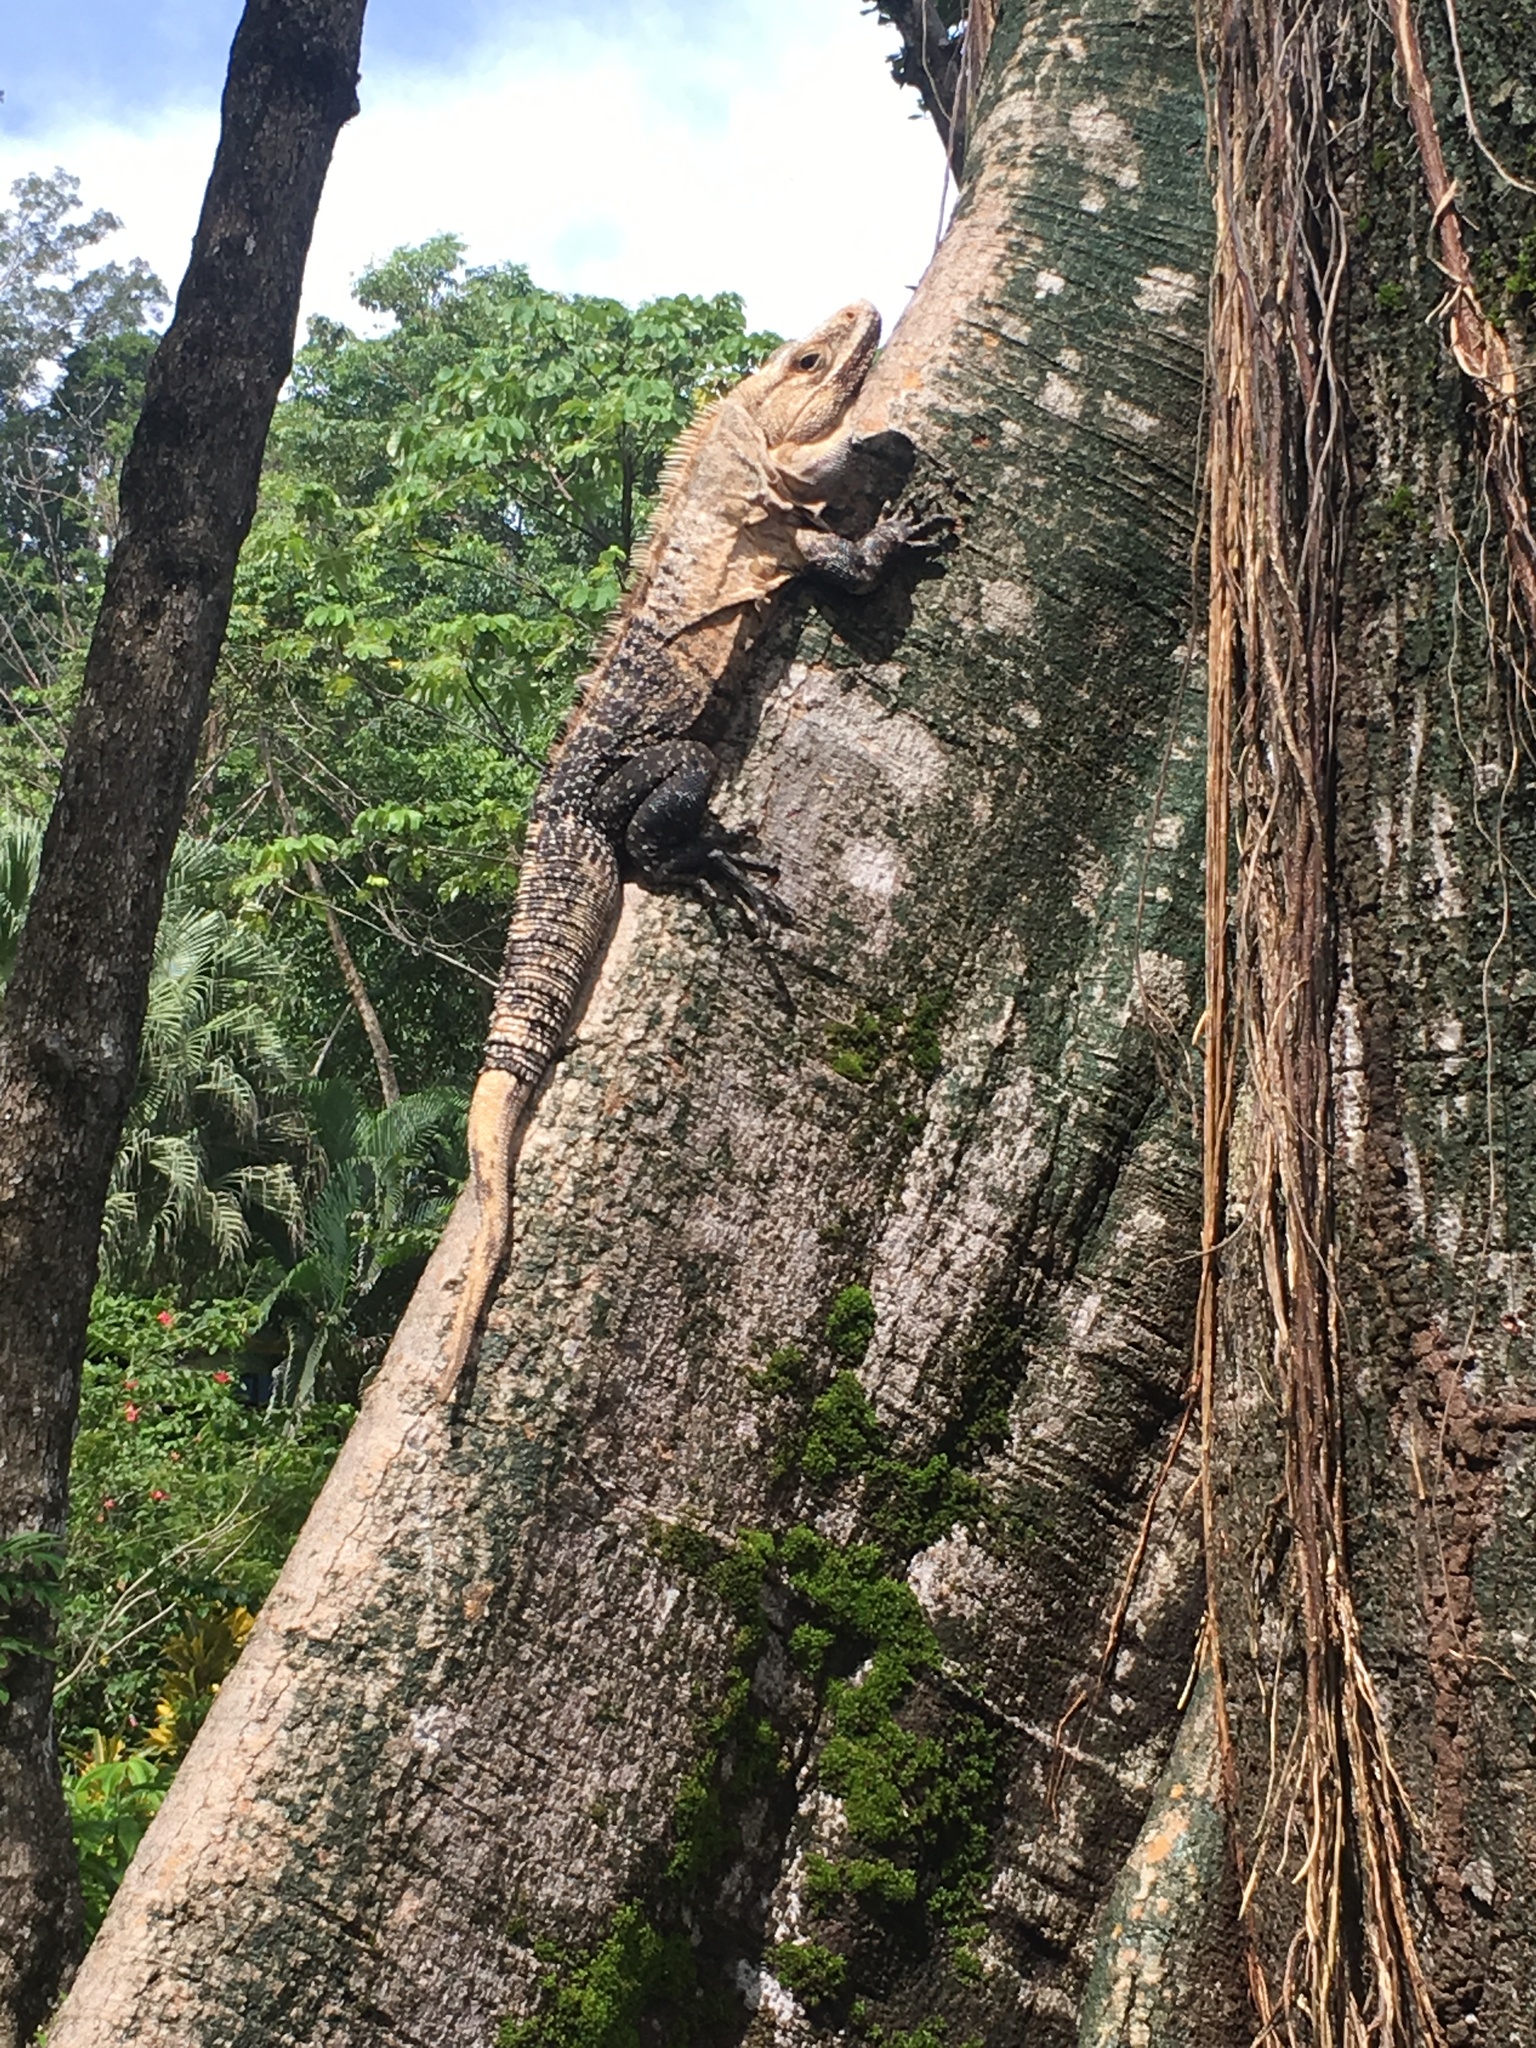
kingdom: Animalia
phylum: Chordata
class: Squamata
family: Iguanidae
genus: Ctenosaura
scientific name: Ctenosaura similis
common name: Black spiny-tailed iguana
